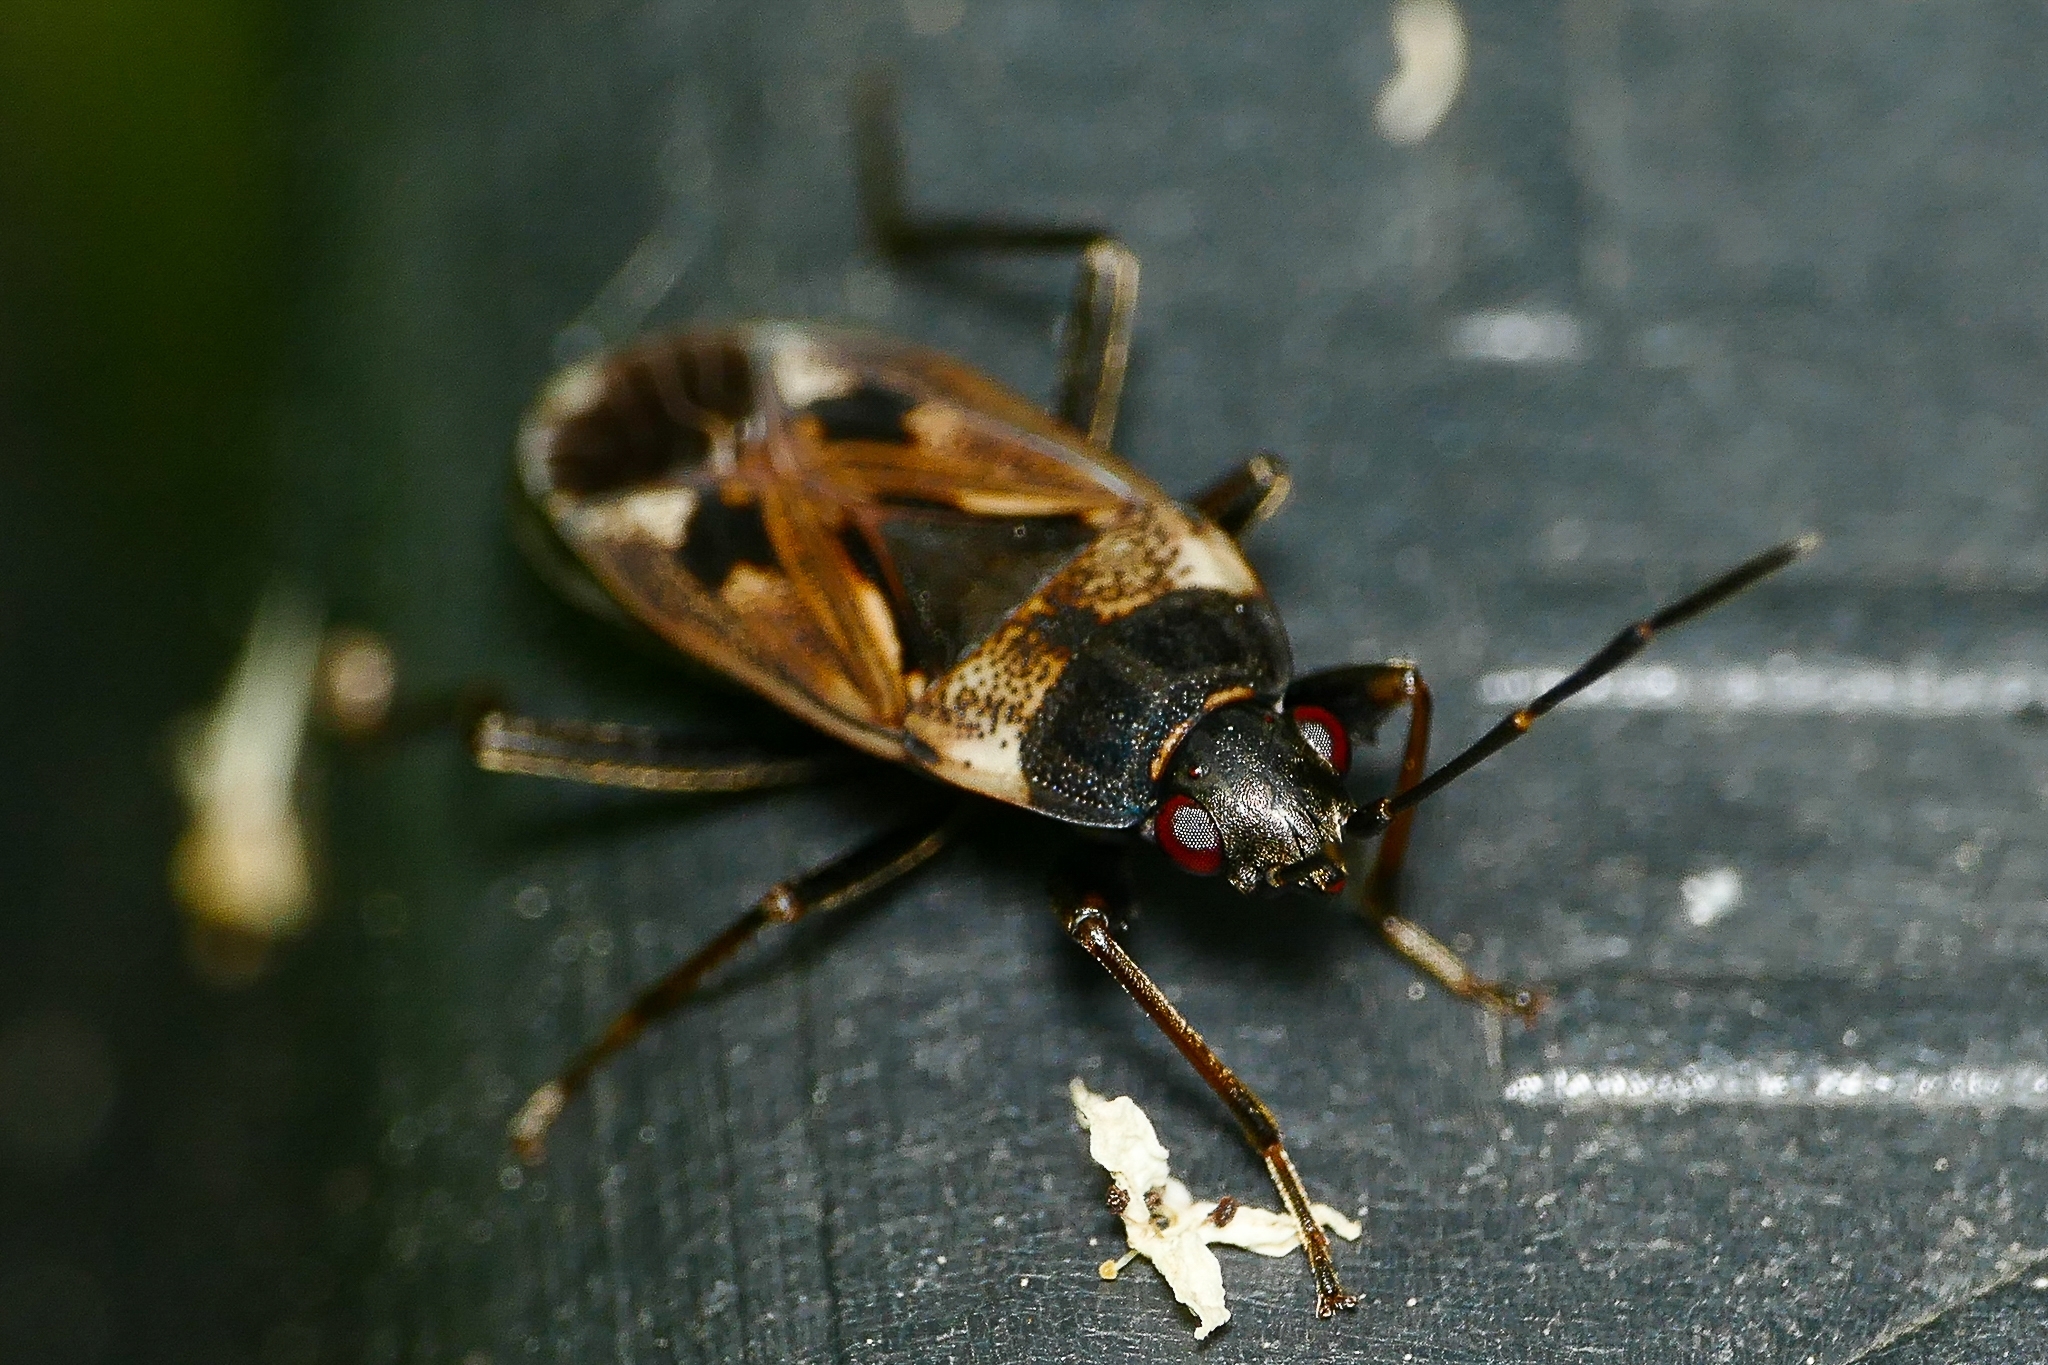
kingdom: Animalia
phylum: Arthropoda
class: Insecta
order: Hemiptera
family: Rhyparochromidae
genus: Rhyparochromus
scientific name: Rhyparochromus vulgaris
